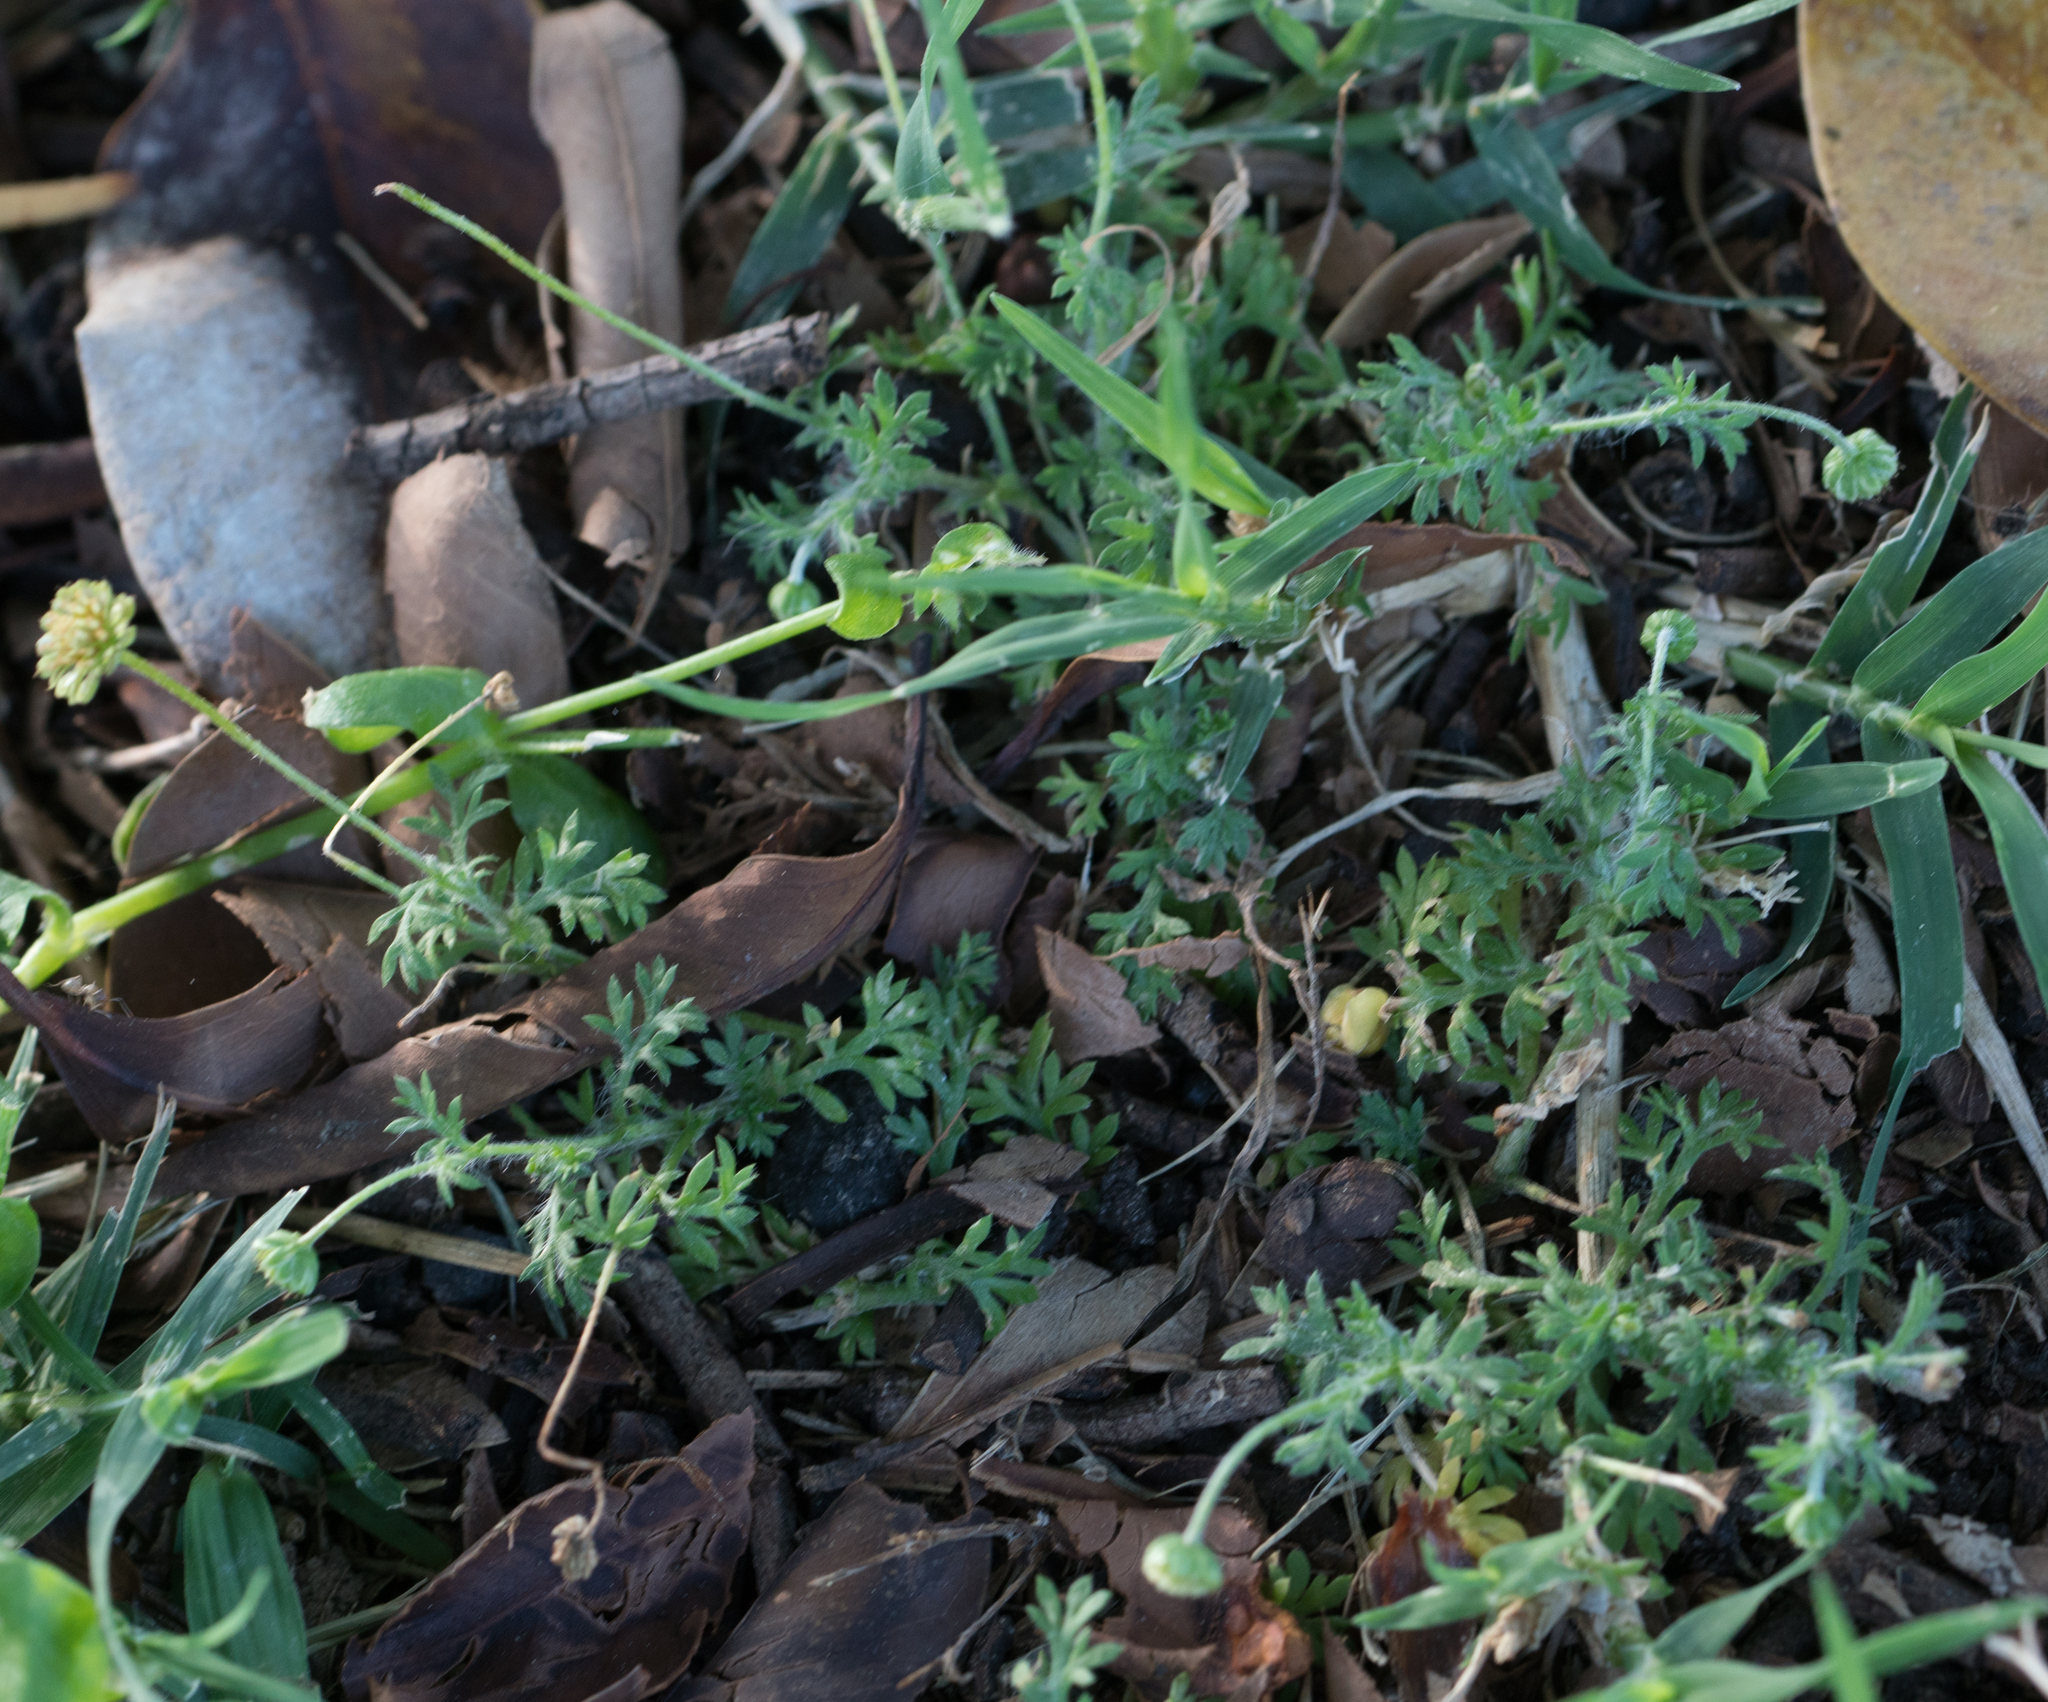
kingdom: Plantae
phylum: Tracheophyta
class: Magnoliopsida
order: Asterales
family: Asteraceae
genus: Cotula
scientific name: Cotula australis
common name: Australian waterbuttons
